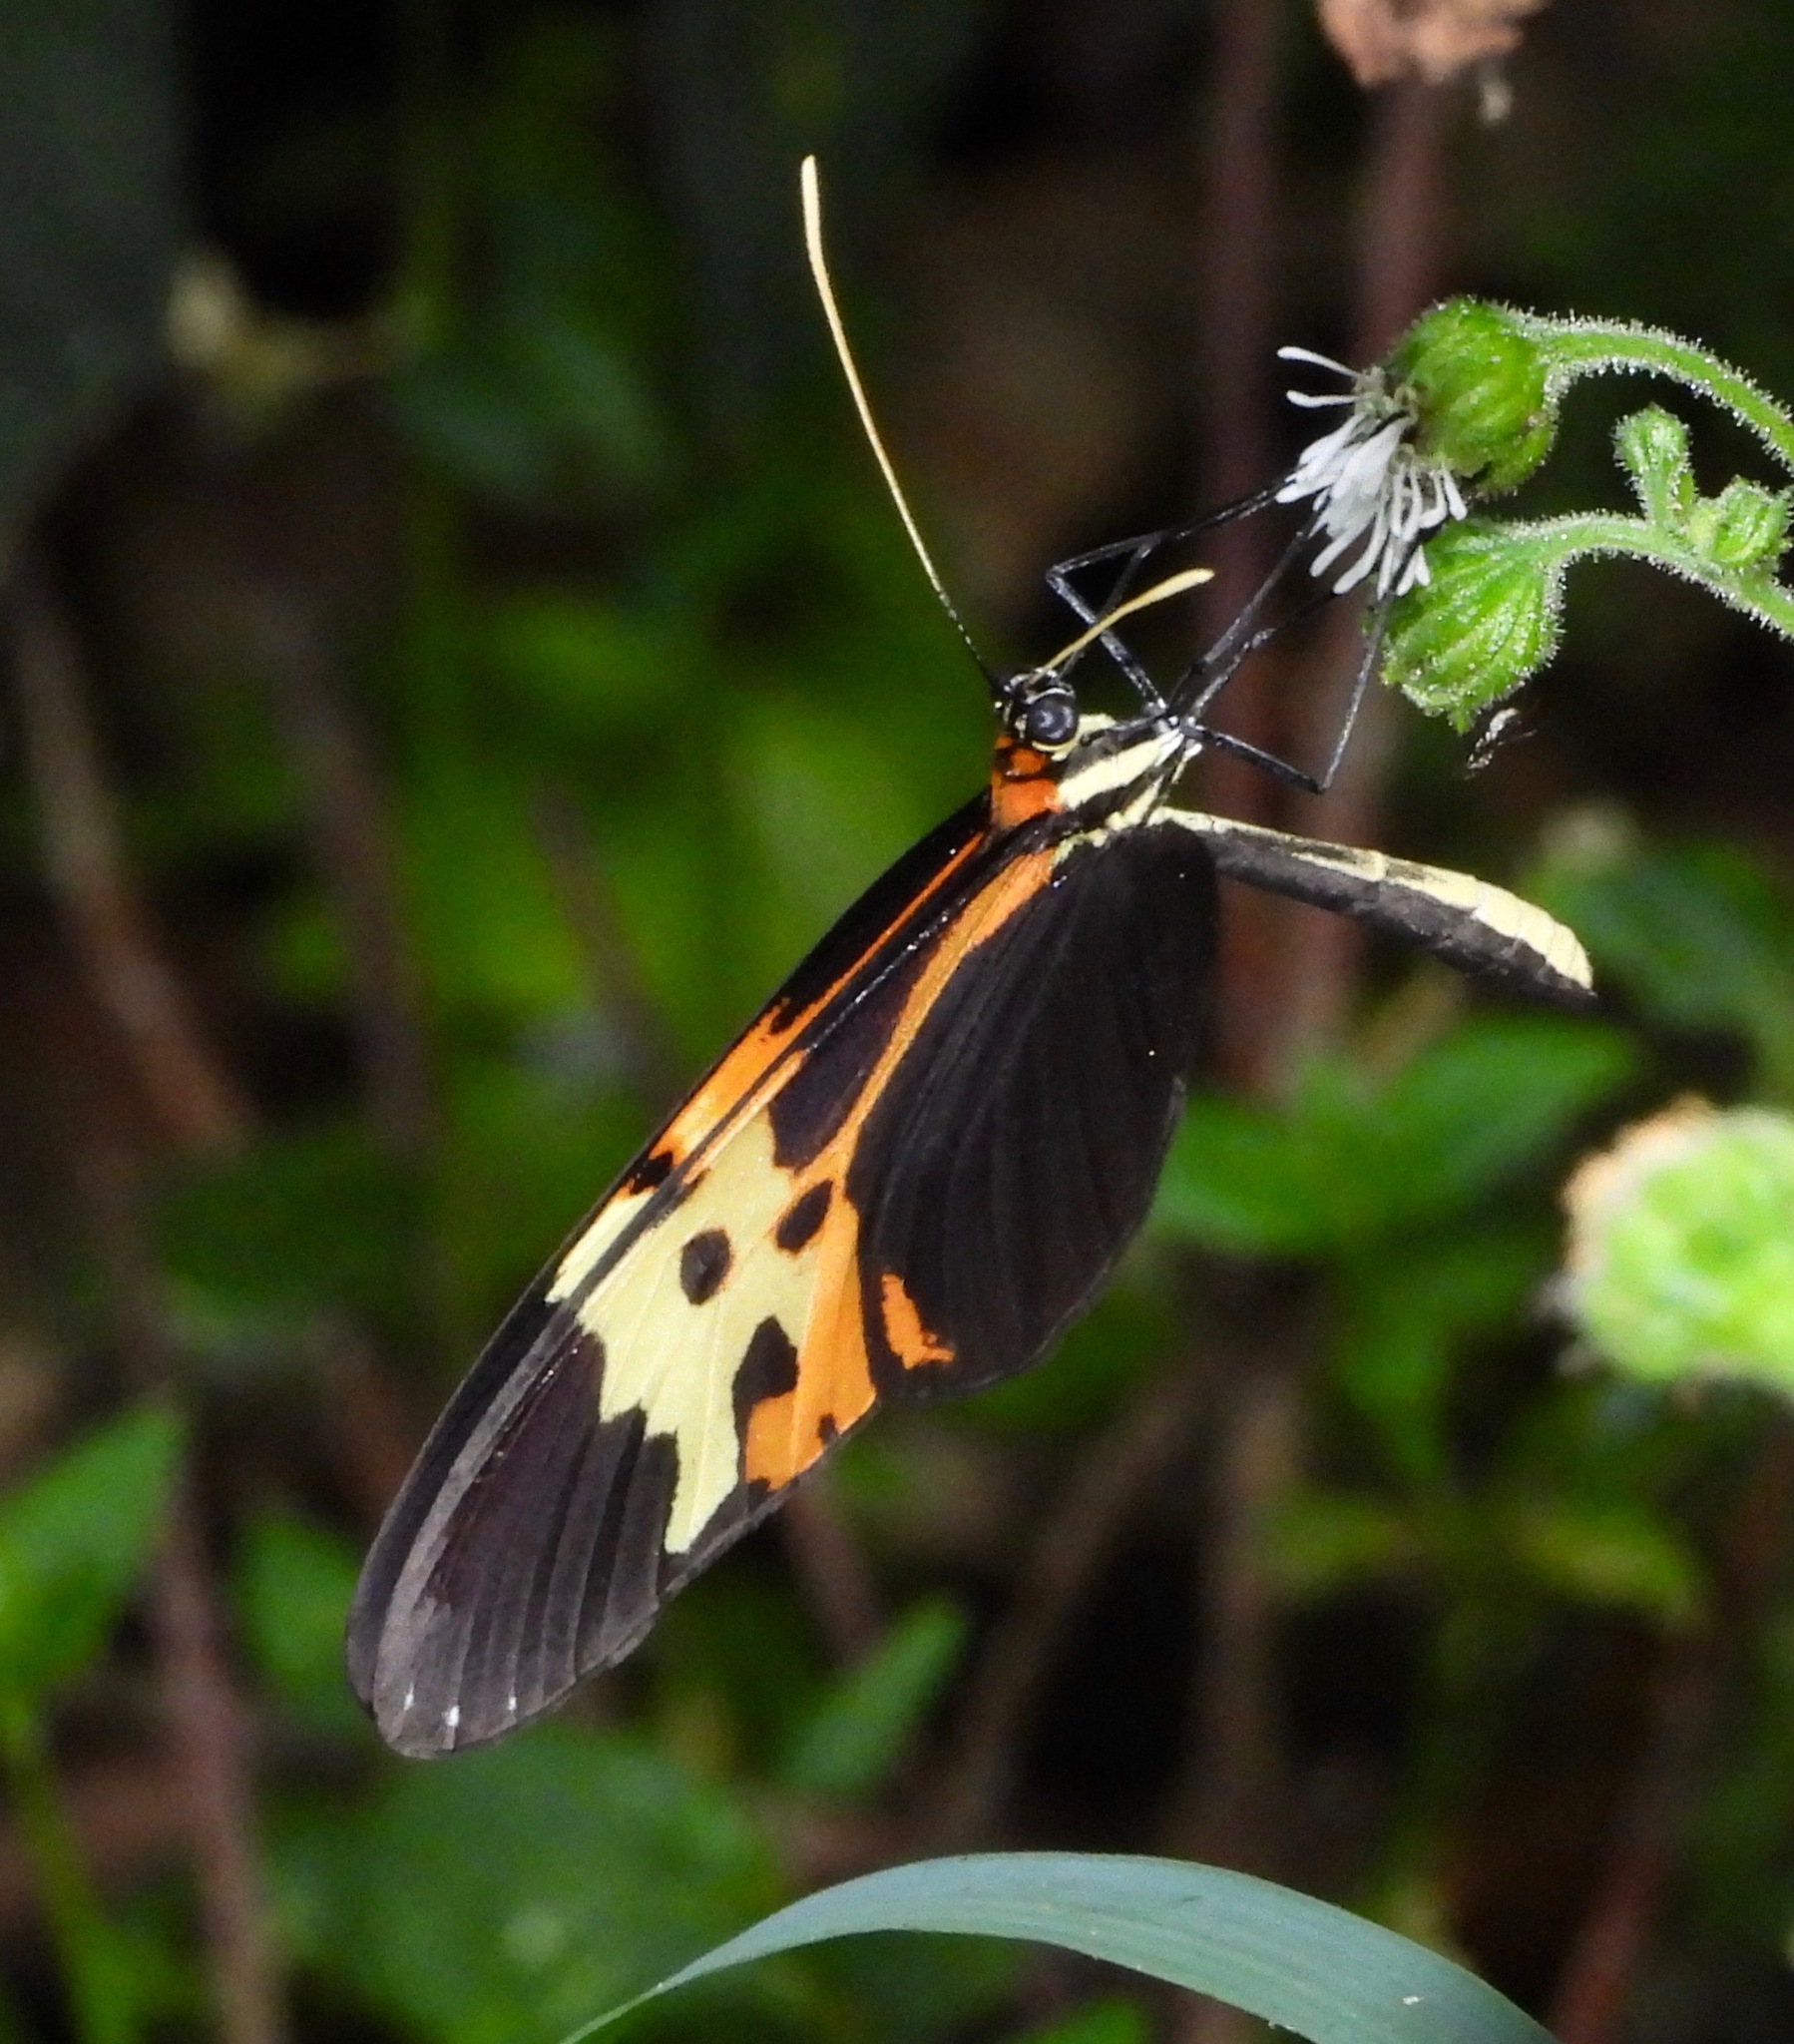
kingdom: Animalia
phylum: Arthropoda
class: Insecta
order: Lepidoptera
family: Nymphalidae
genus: Mechanitis
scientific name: Mechanitis mazaeus
